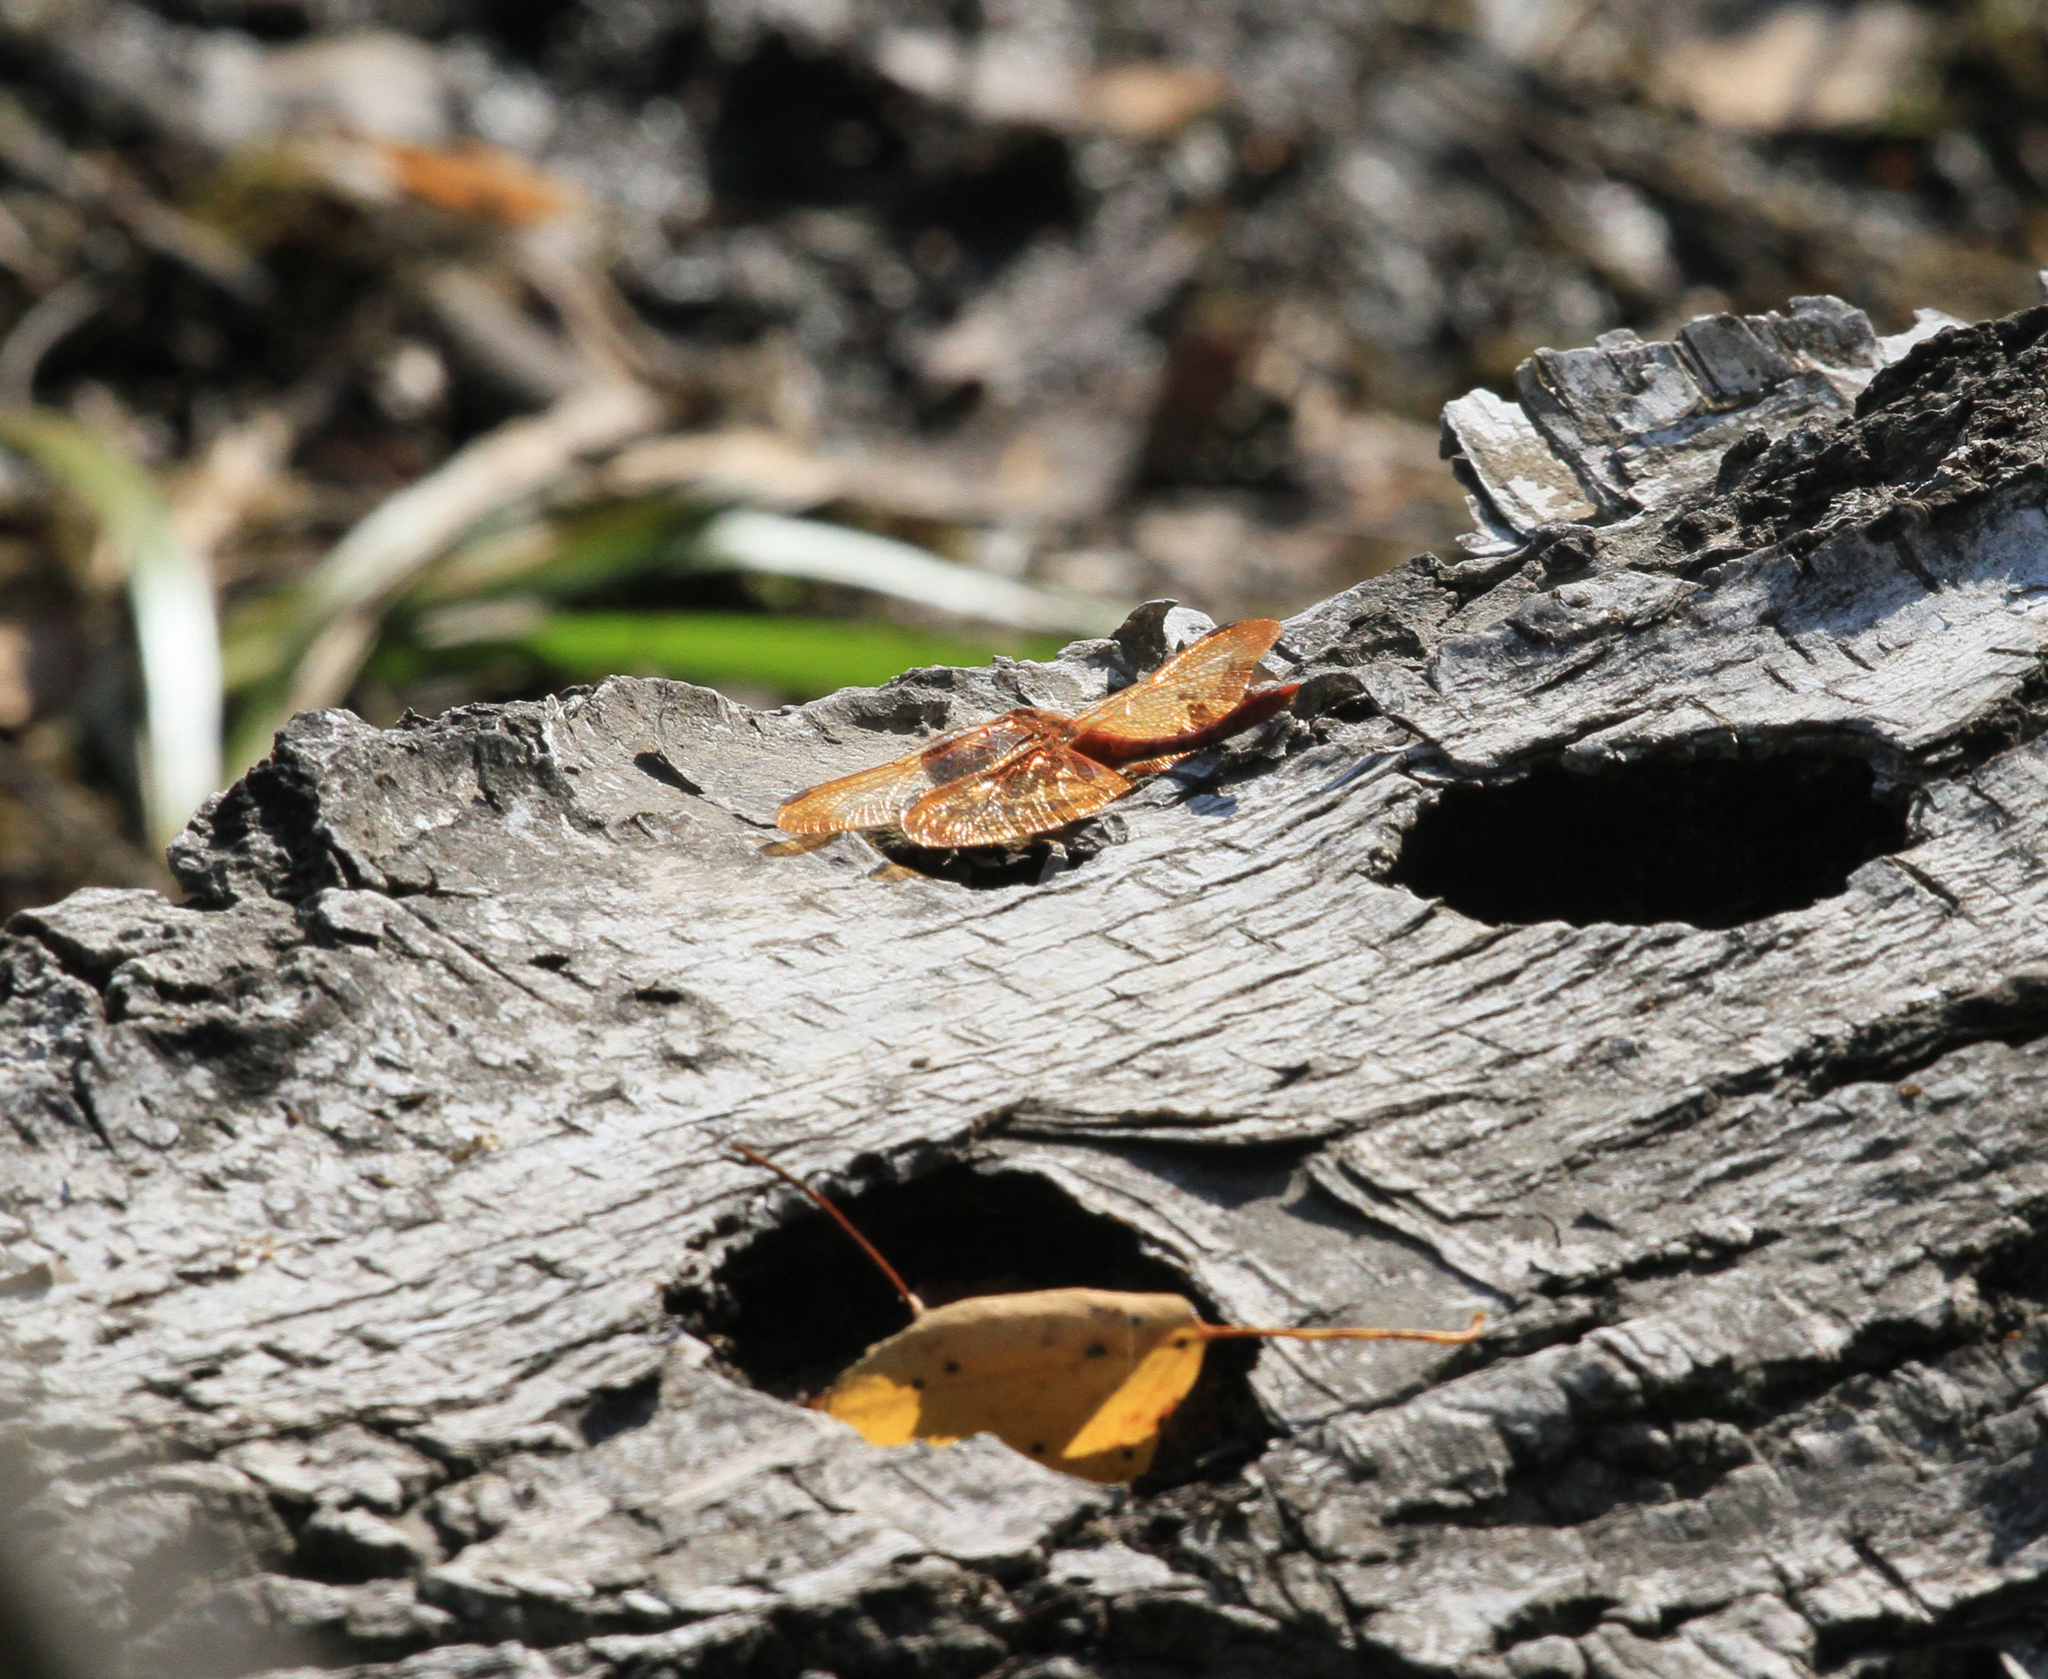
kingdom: Animalia
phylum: Arthropoda
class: Insecta
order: Odonata
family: Libellulidae
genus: Sympetrum
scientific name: Sympetrum croceolum
